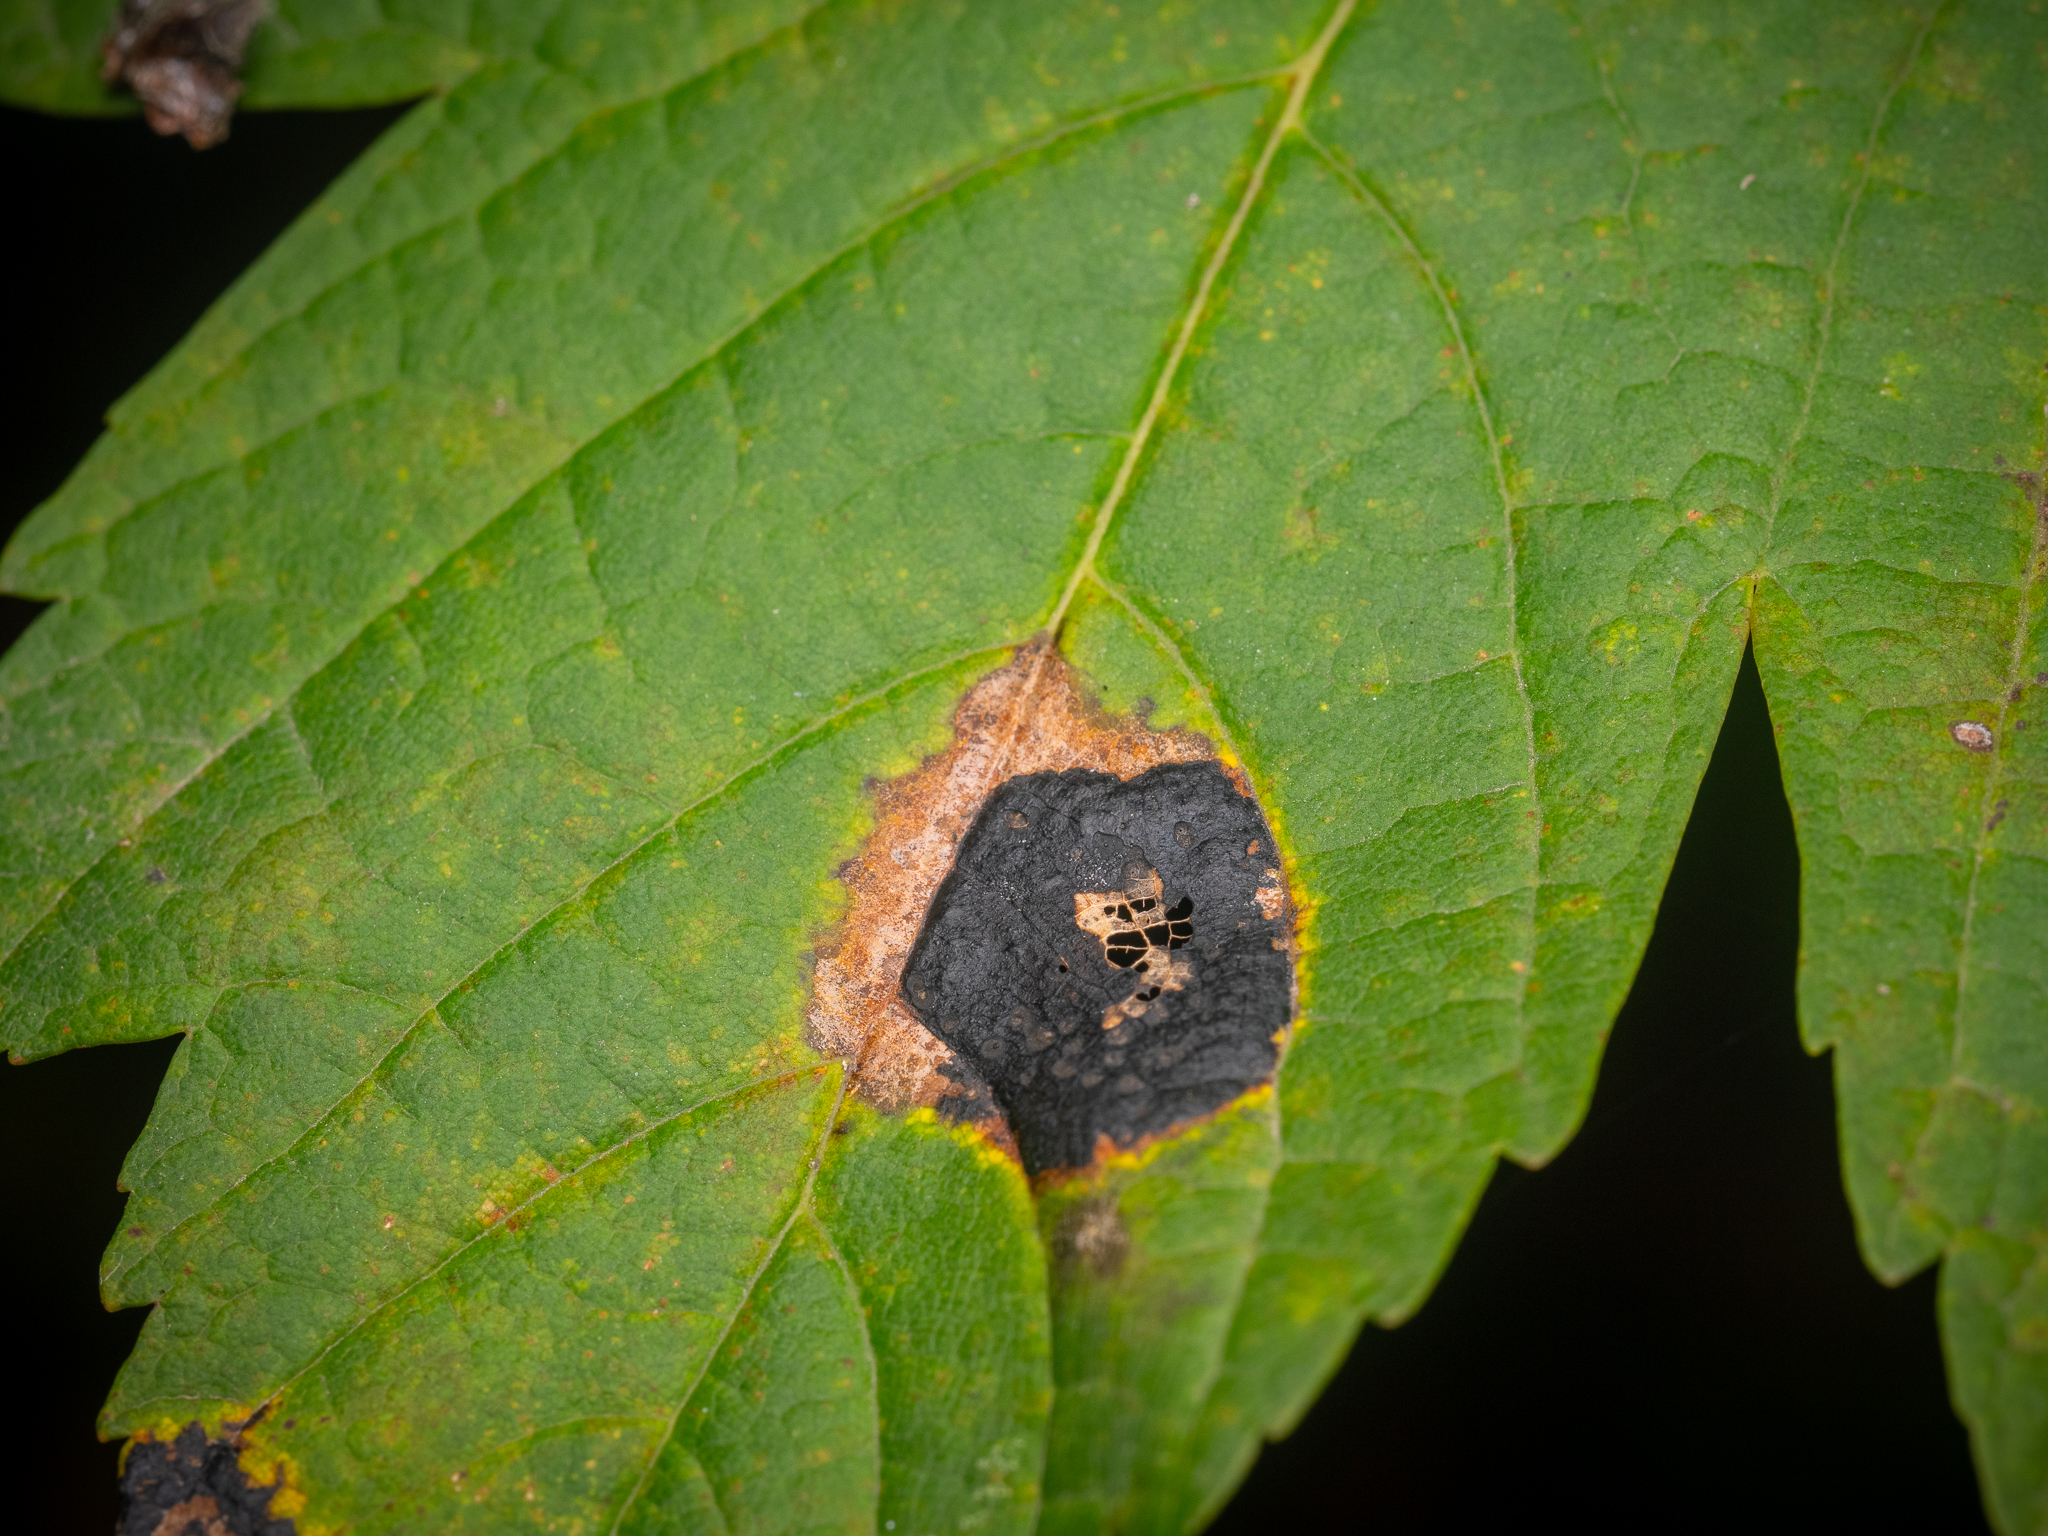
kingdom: Fungi
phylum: Ascomycota
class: Leotiomycetes
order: Rhytismatales
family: Rhytismataceae
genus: Rhytisma
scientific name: Rhytisma acerinum
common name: European tar spot
